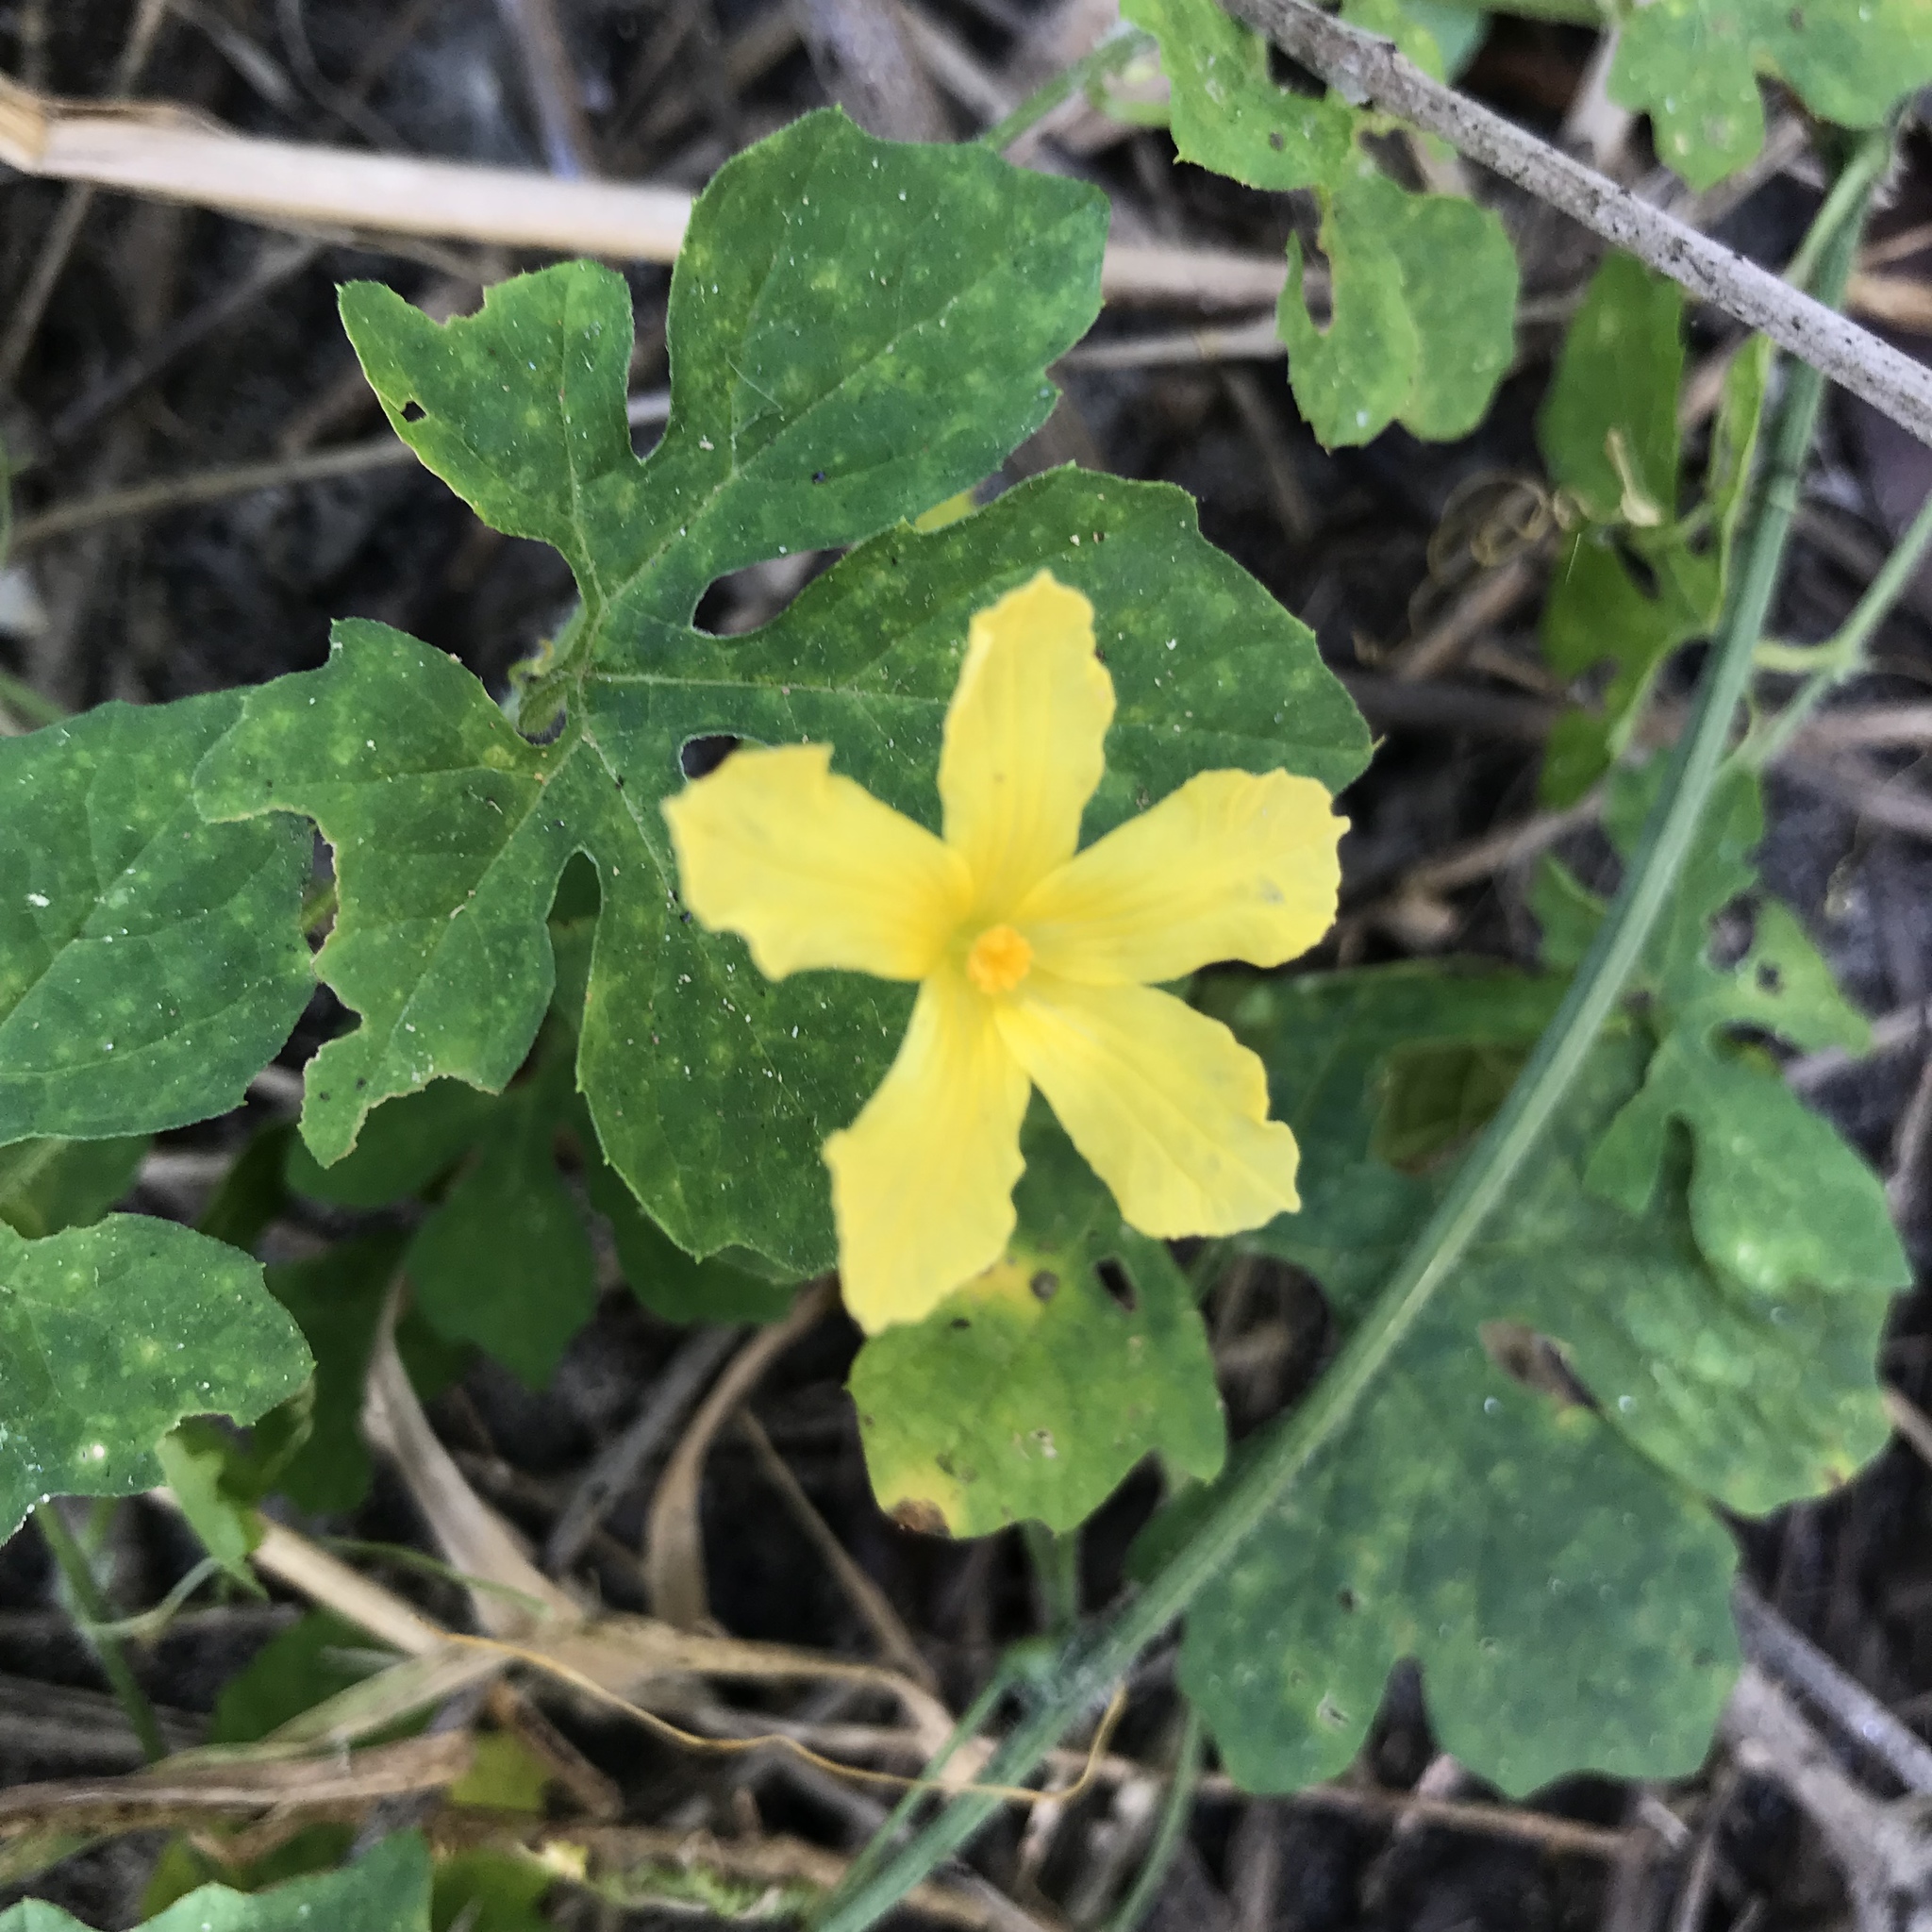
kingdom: Plantae
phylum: Tracheophyta
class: Magnoliopsida
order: Cucurbitales
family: Cucurbitaceae
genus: Momordica
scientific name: Momordica charantia
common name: Balsampear
